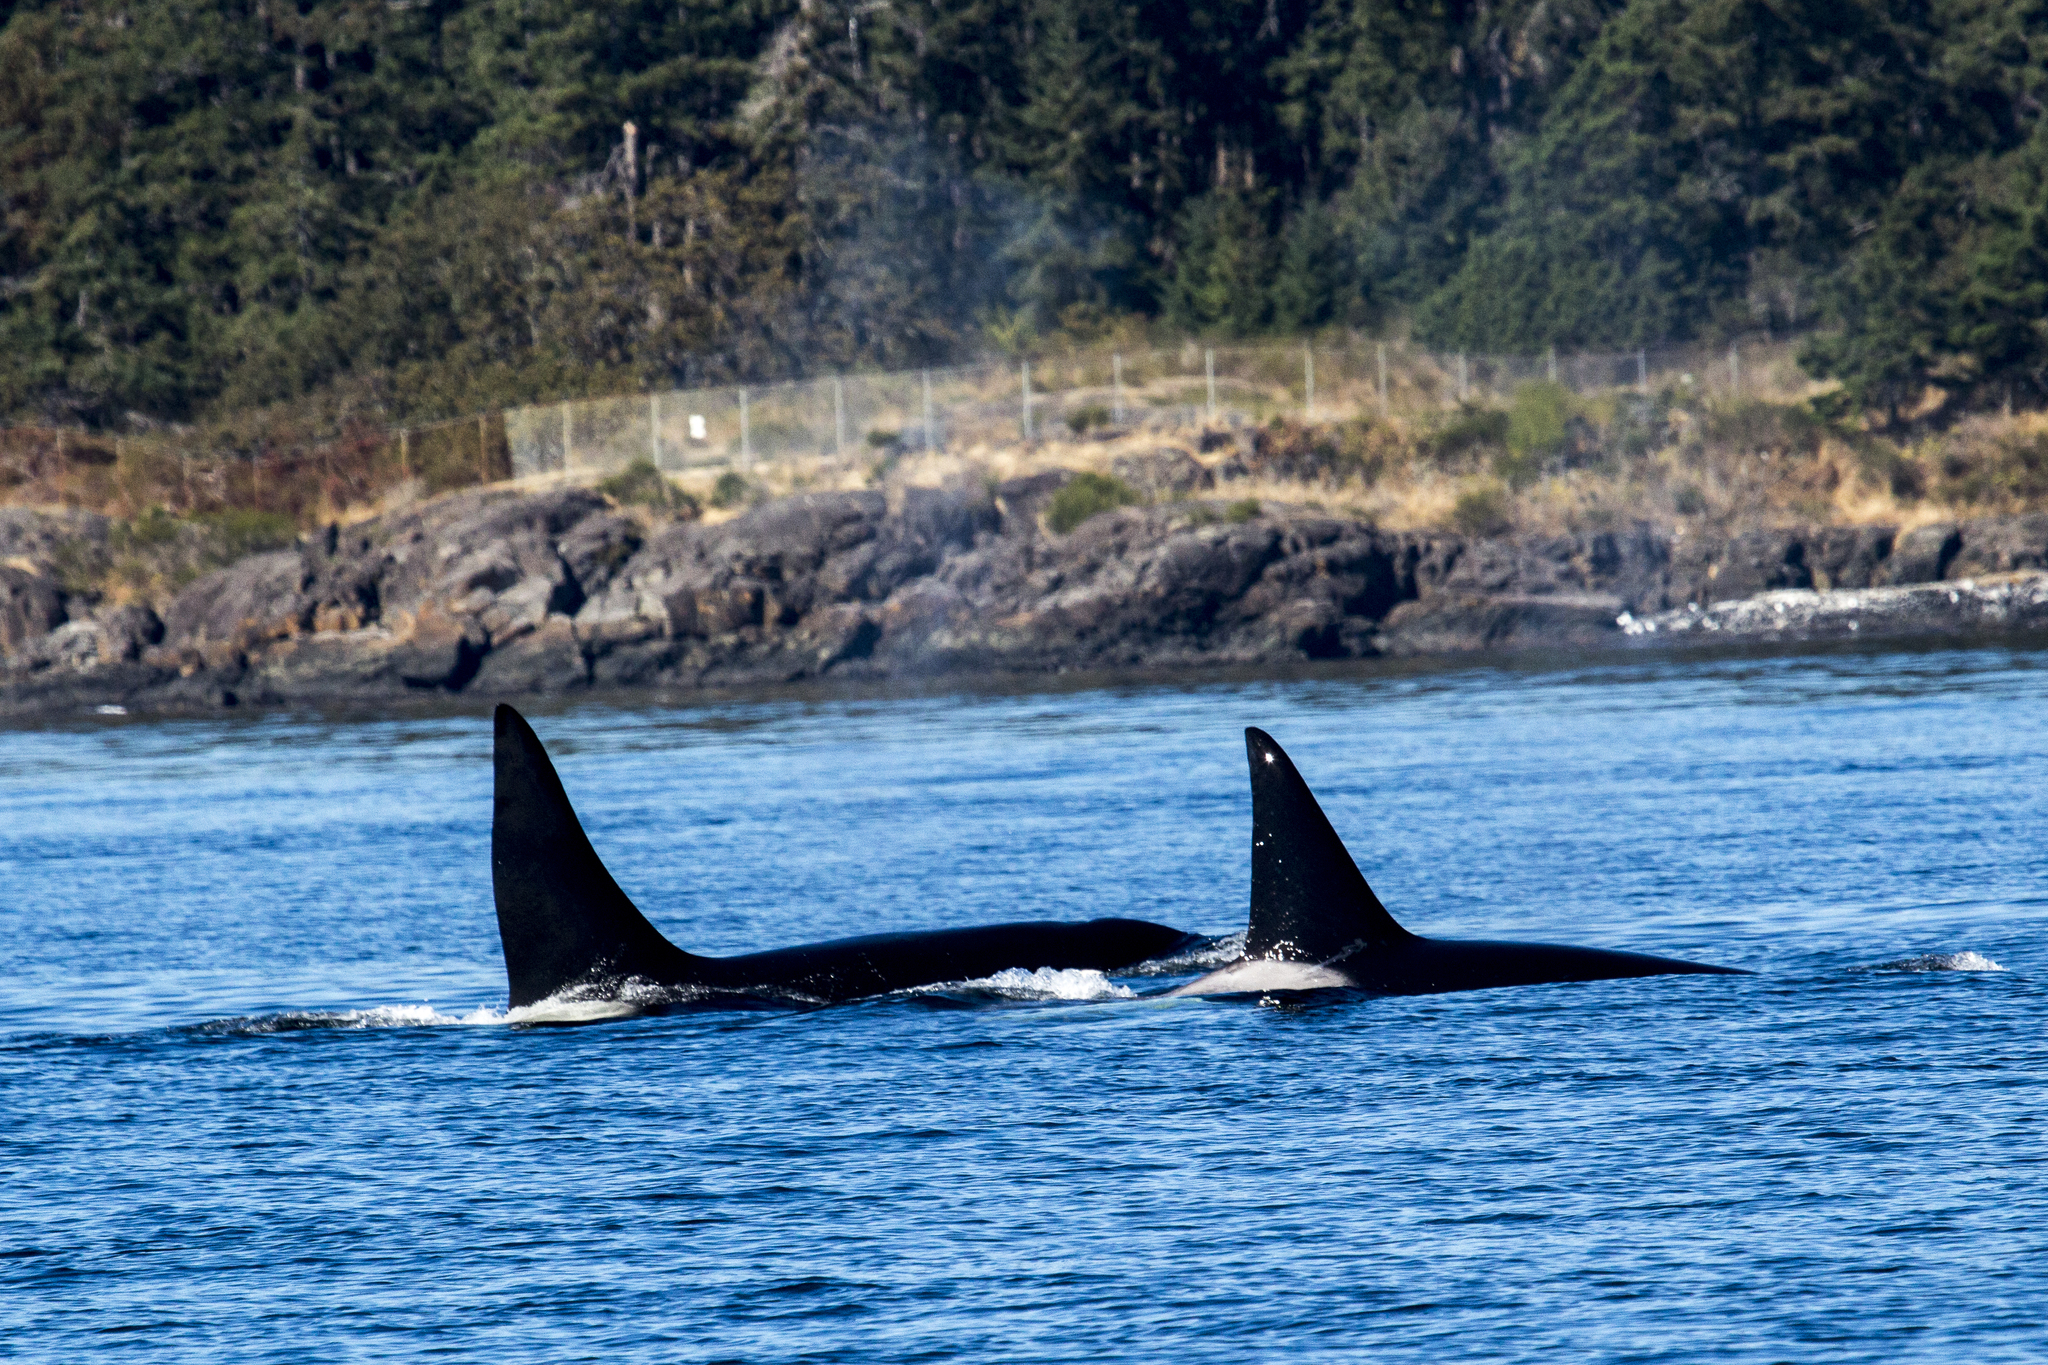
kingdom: Animalia
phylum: Chordata
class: Mammalia
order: Cetacea
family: Delphinidae
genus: Orcinus
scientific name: Orcinus orca
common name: Killer whale
